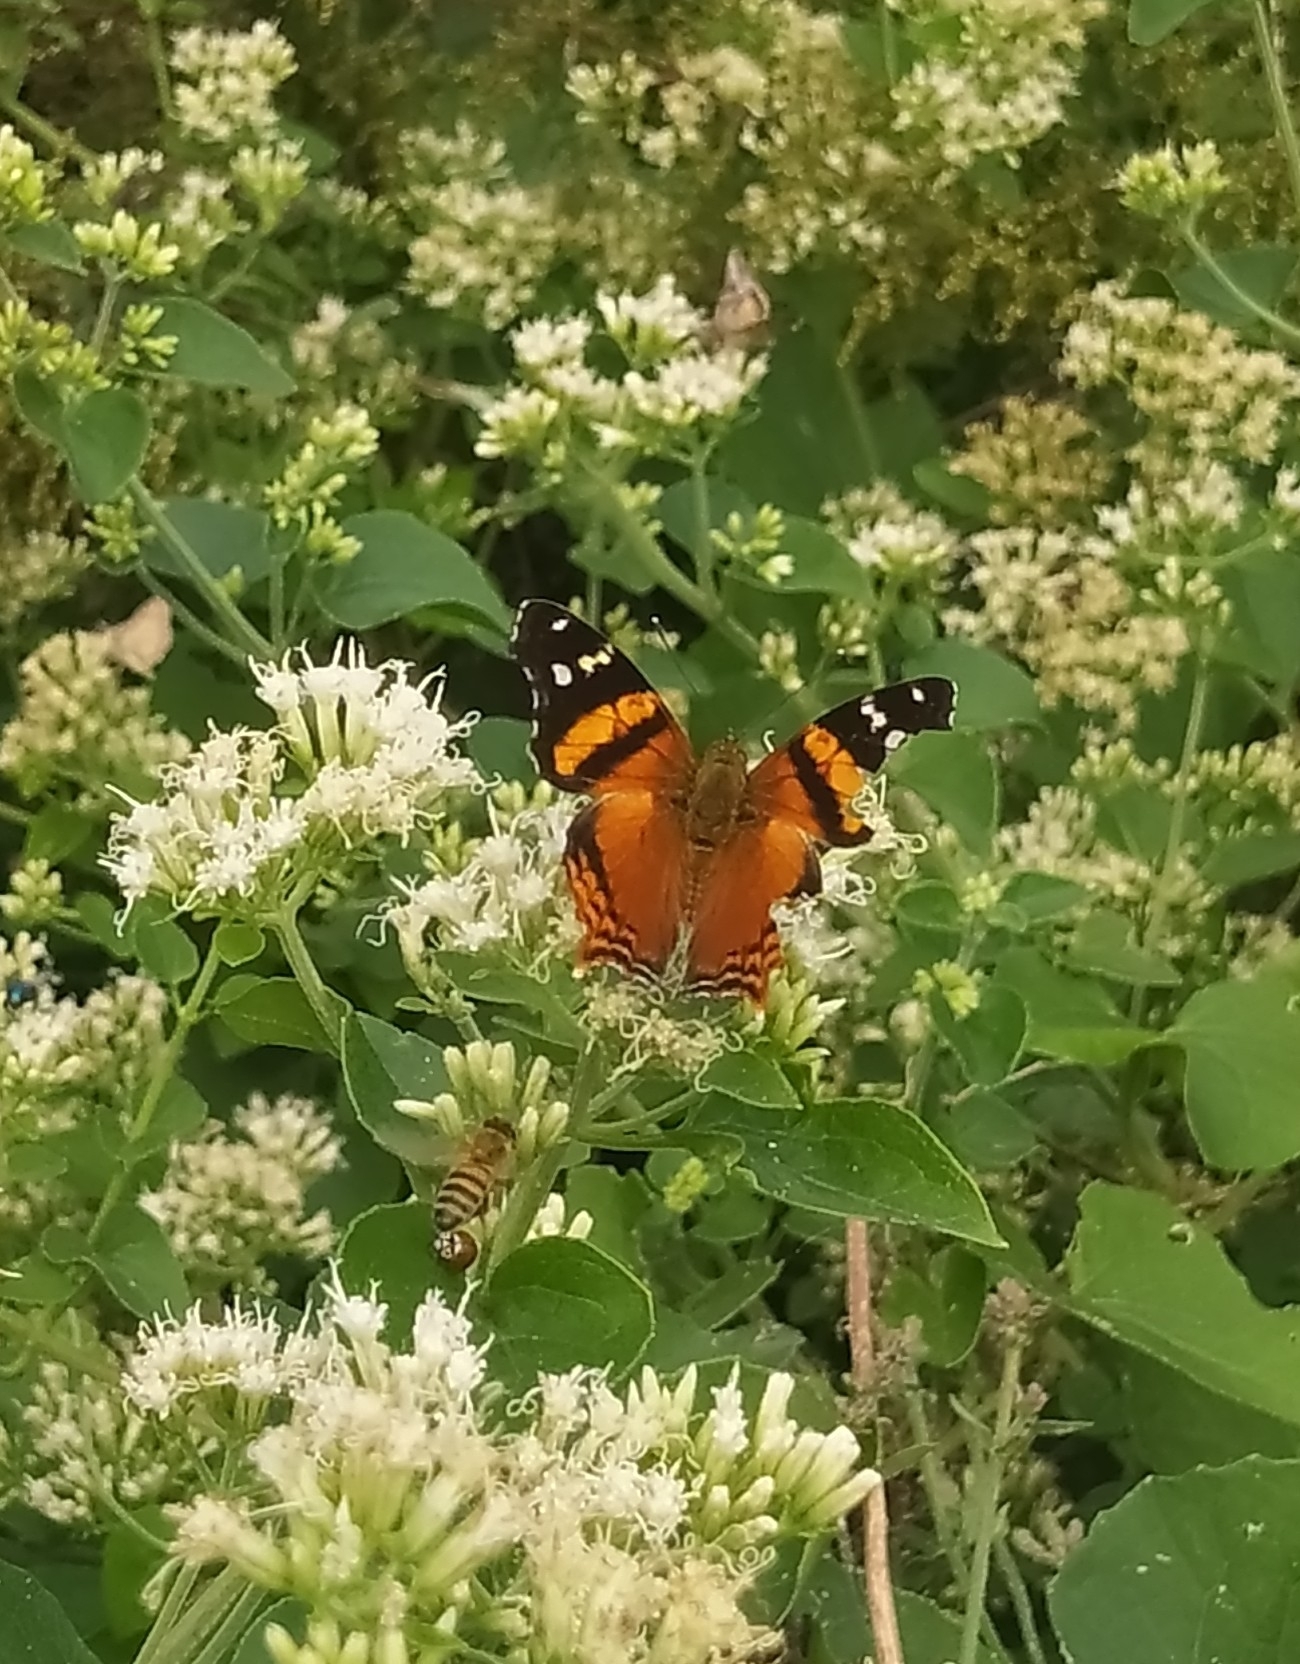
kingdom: Animalia
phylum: Arthropoda
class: Insecta
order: Lepidoptera
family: Nymphalidae
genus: Hypanartia
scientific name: Hypanartia bella
